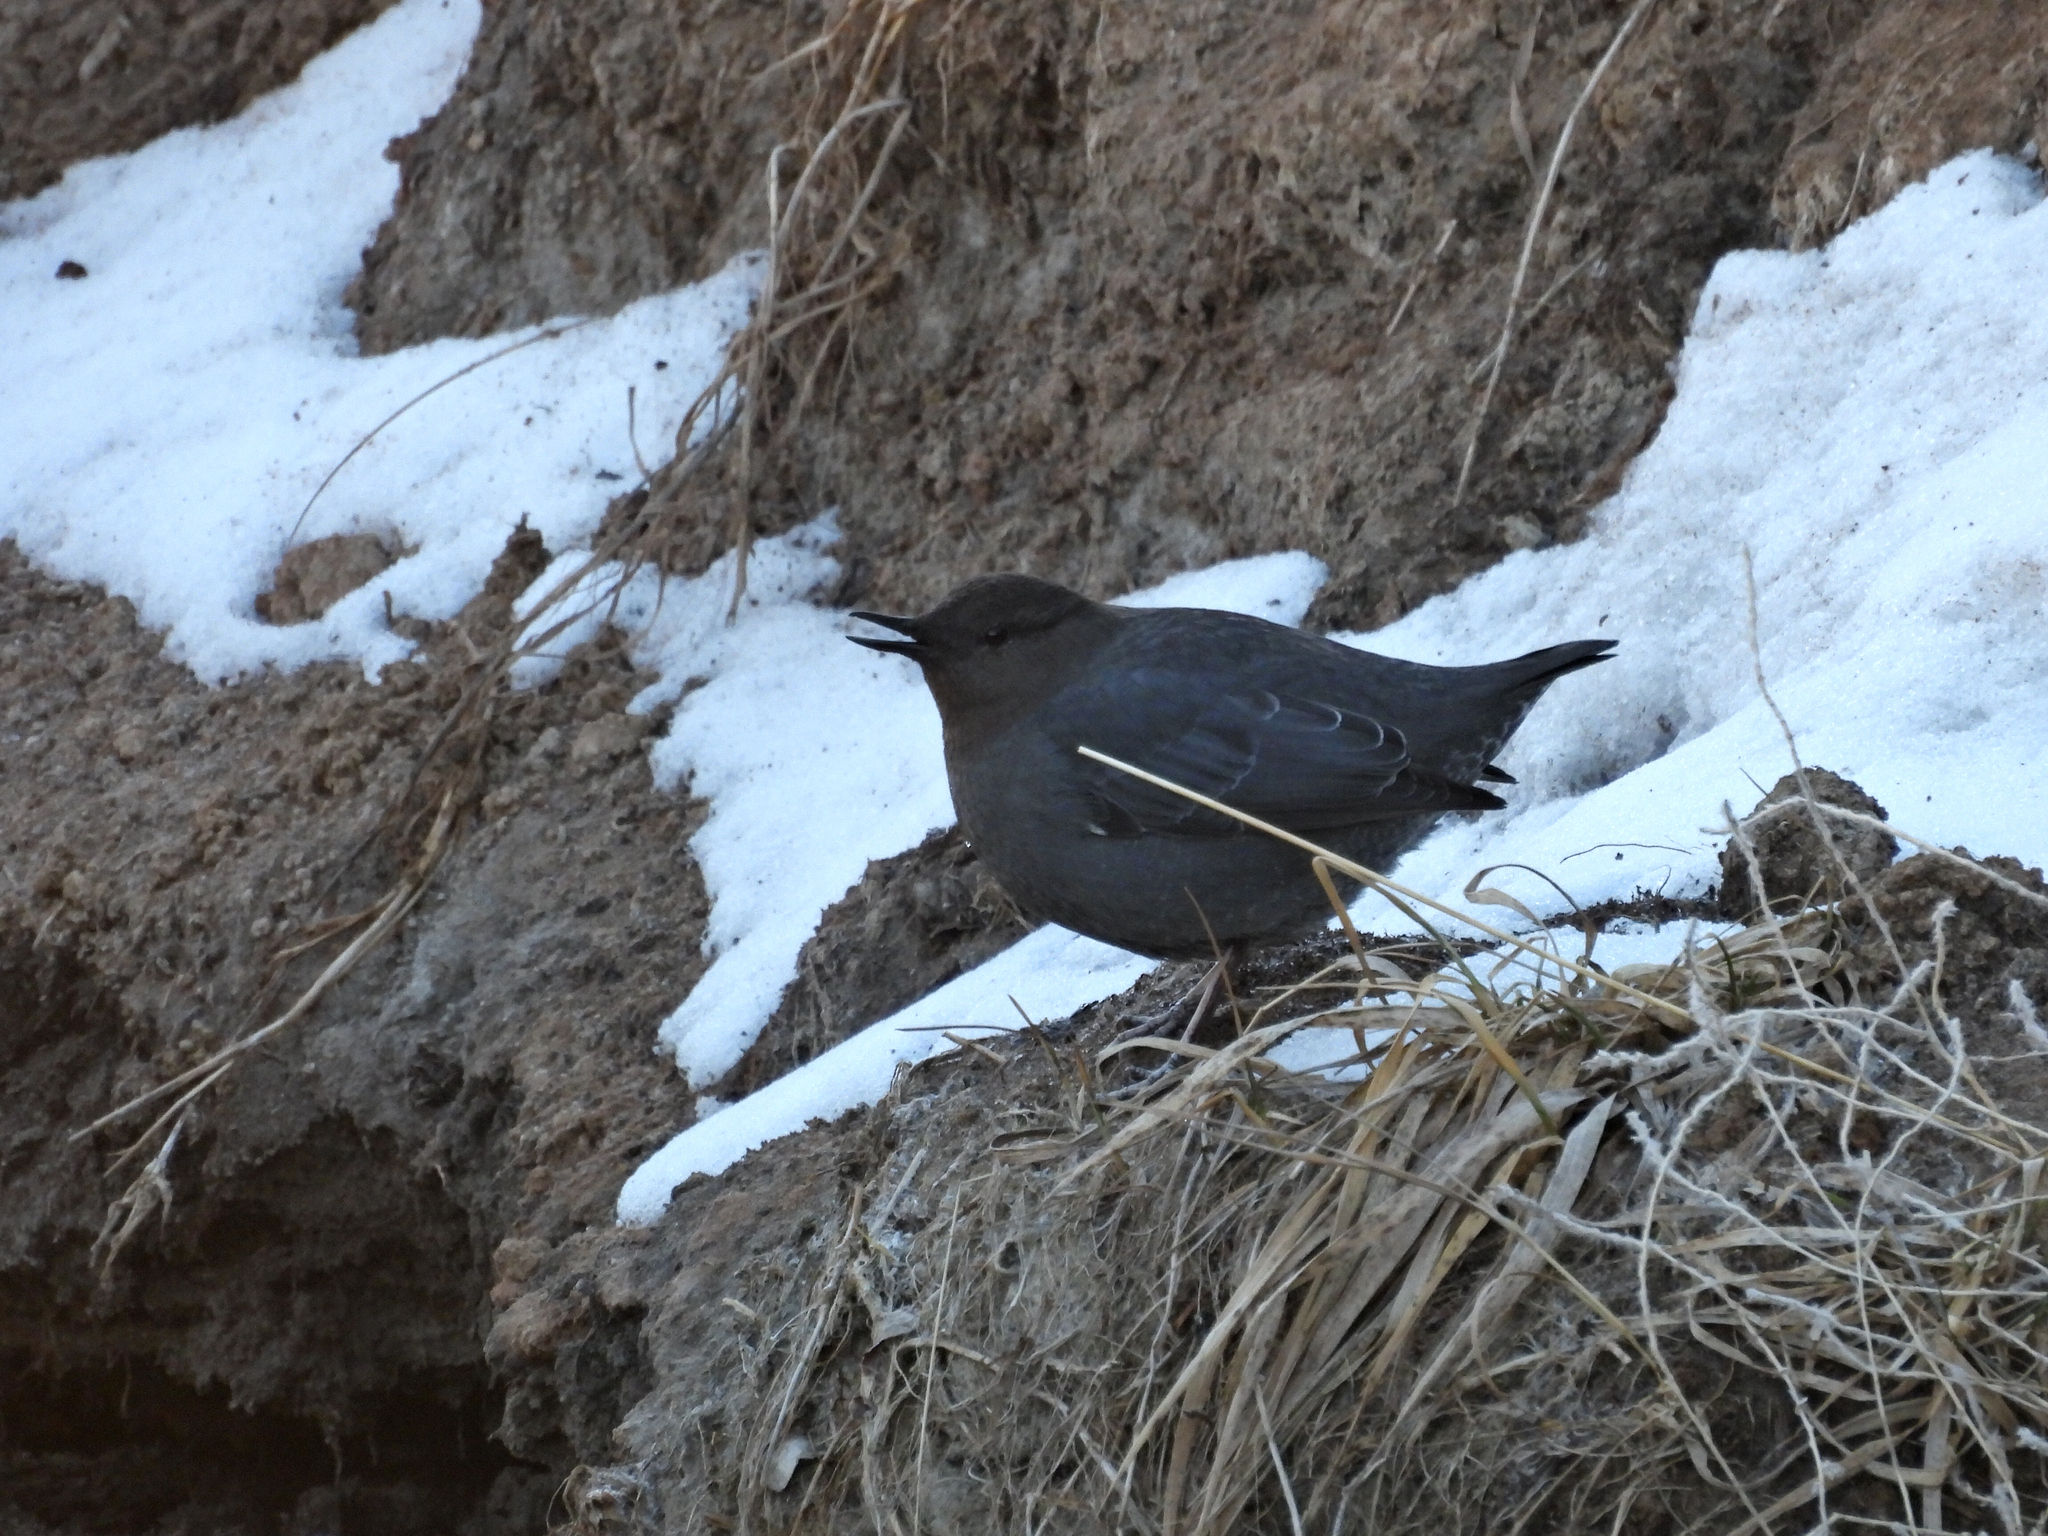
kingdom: Animalia
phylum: Chordata
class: Aves
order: Passeriformes
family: Cinclidae
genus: Cinclus
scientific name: Cinclus mexicanus
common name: American dipper
